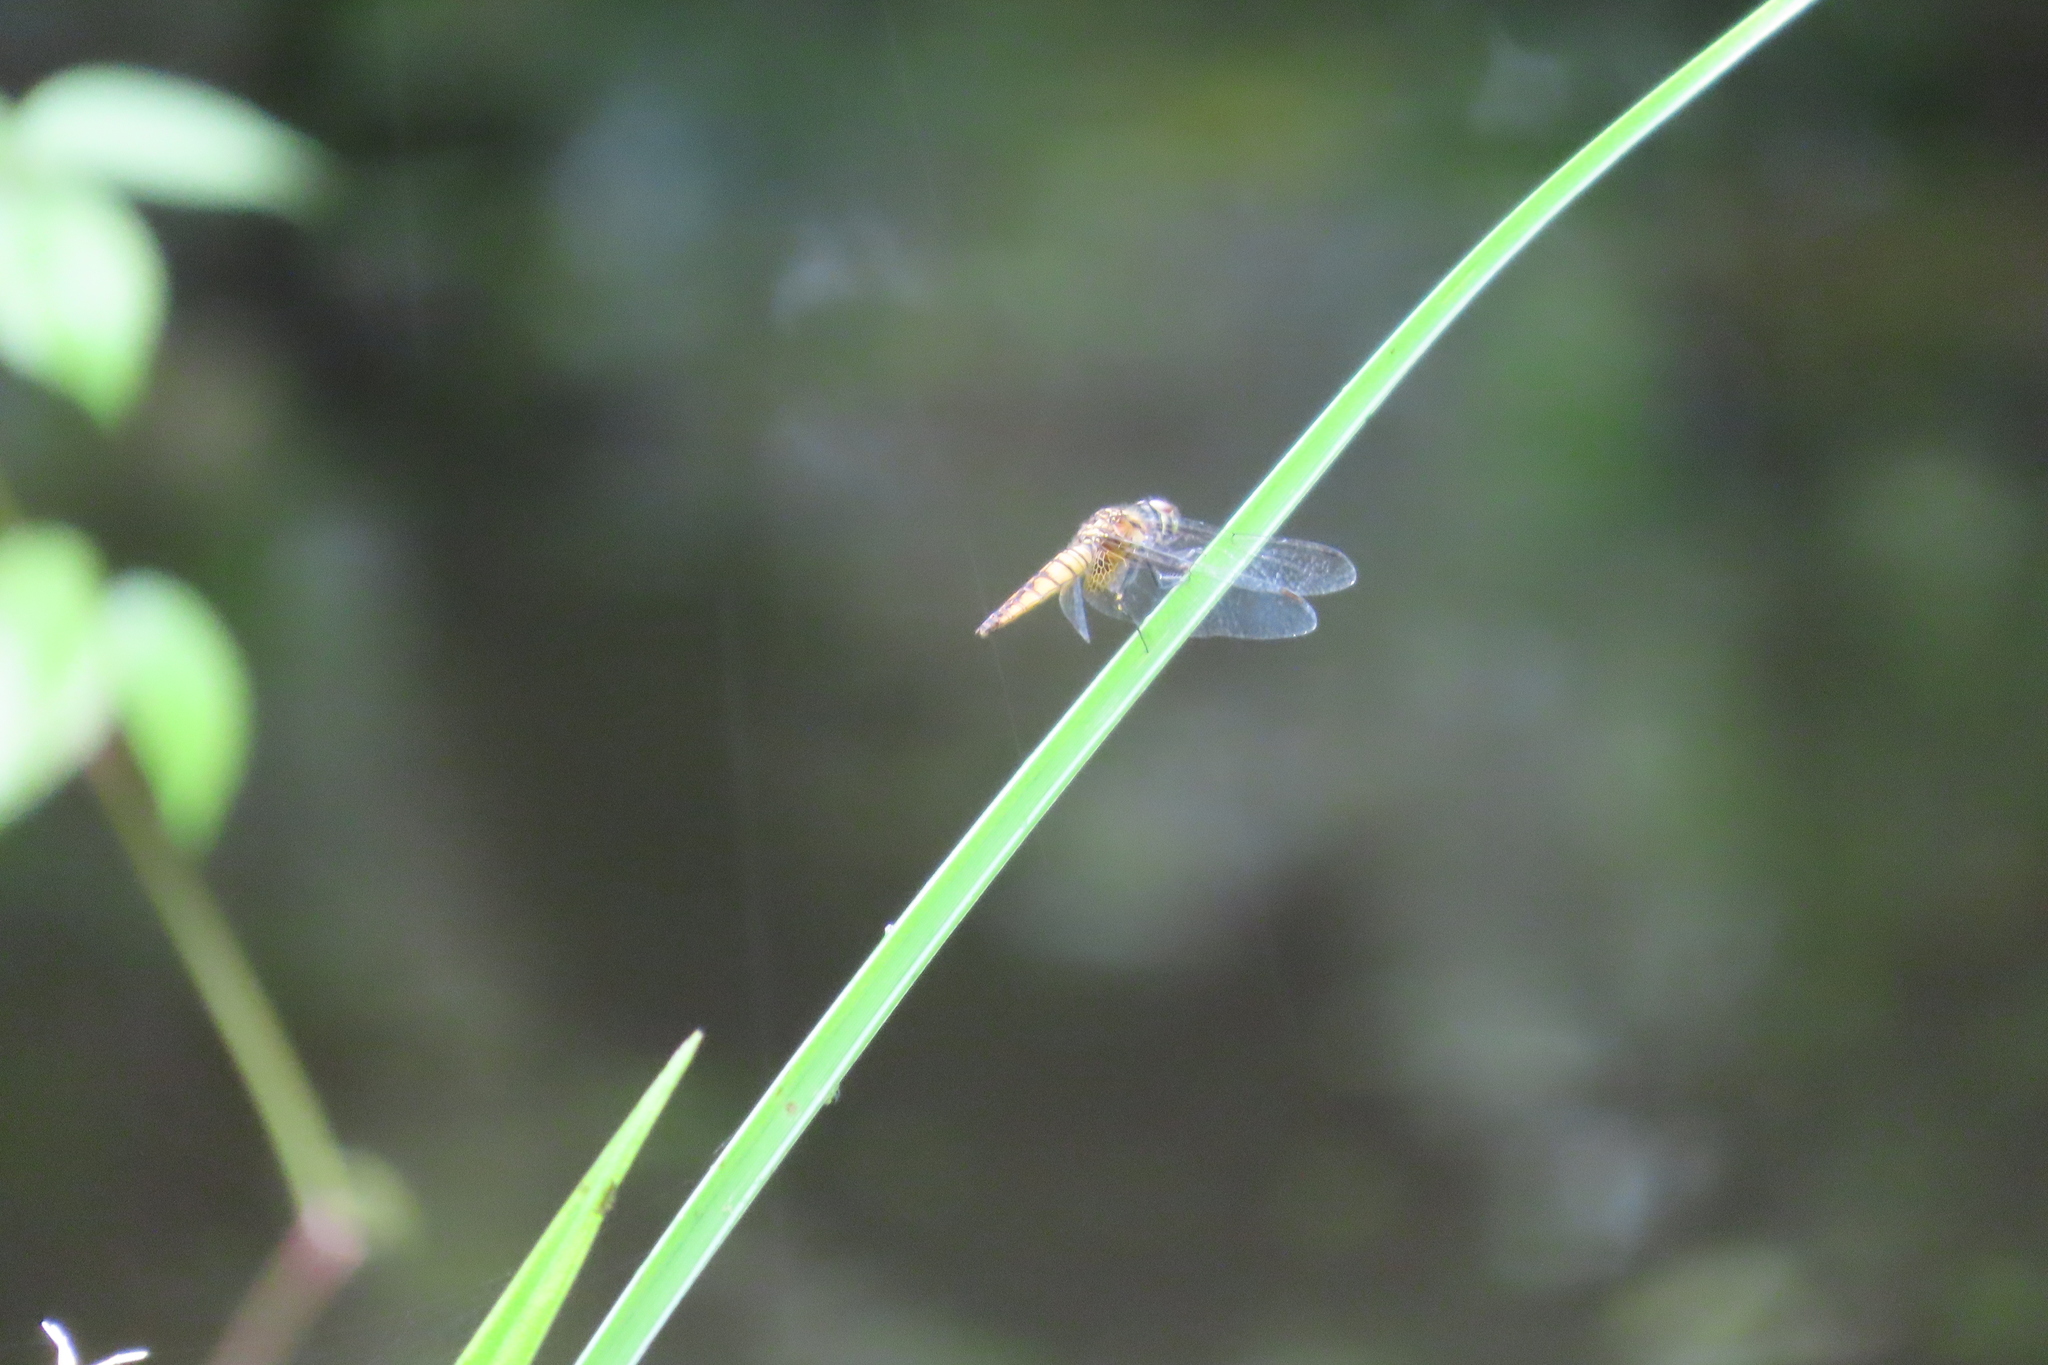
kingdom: Animalia
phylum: Arthropoda
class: Insecta
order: Odonata
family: Libellulidae
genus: Aethriamanta
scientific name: Aethriamanta brevipennis
